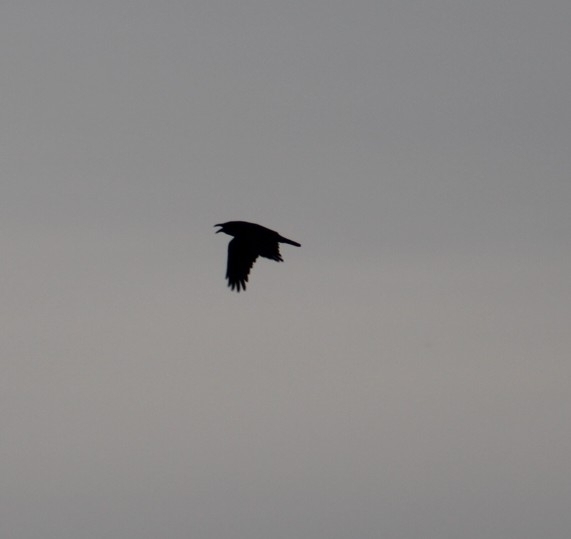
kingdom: Animalia
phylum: Chordata
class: Aves
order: Passeriformes
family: Corvidae
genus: Corvus
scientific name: Corvus corax
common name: Common raven
